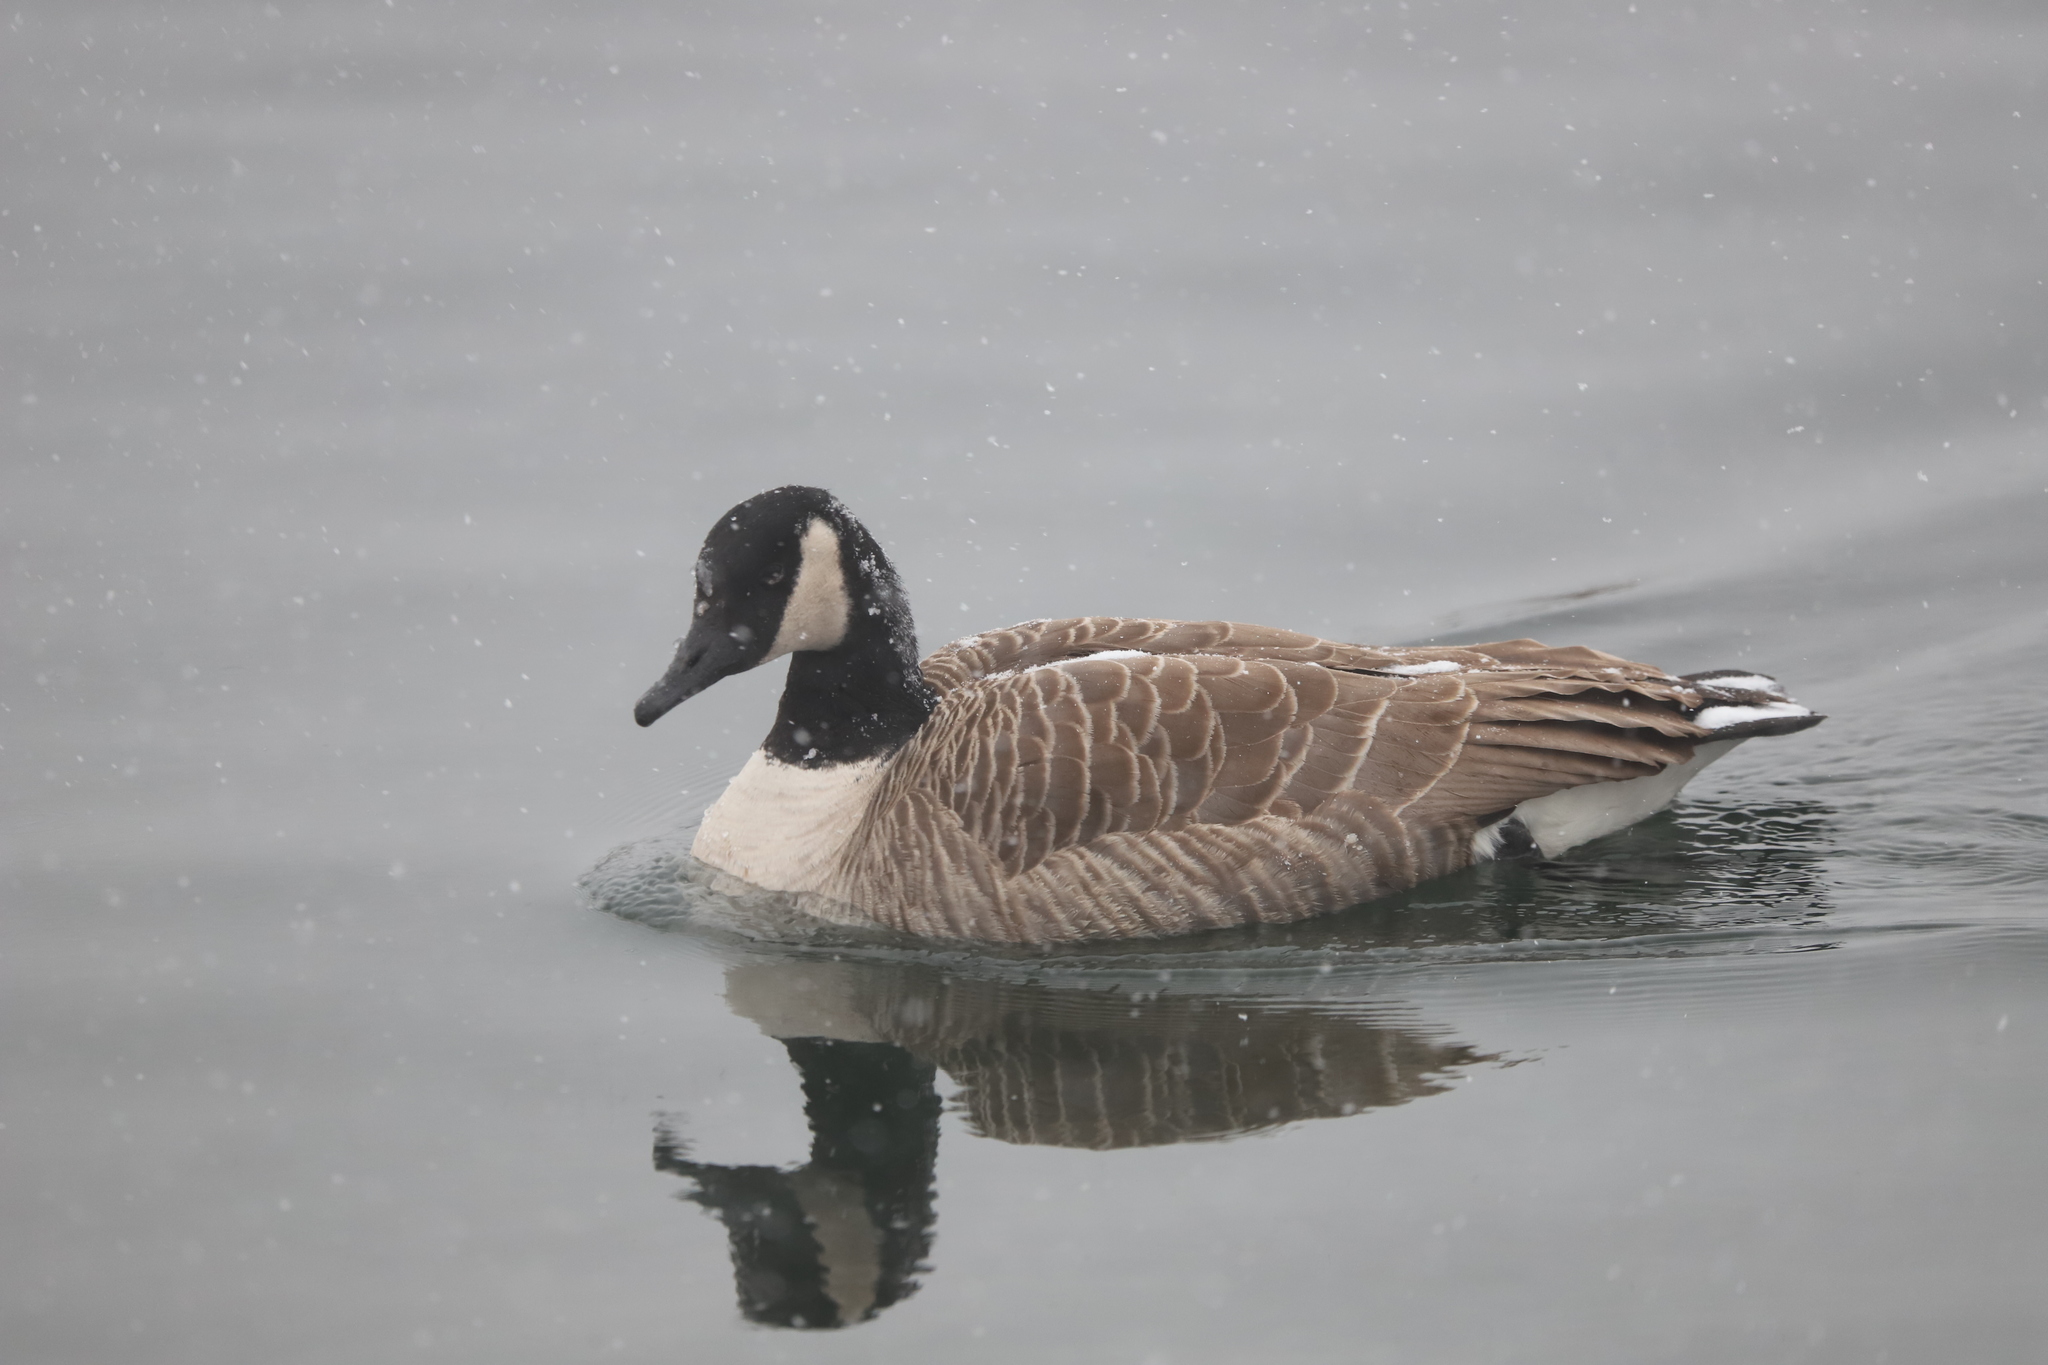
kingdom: Animalia
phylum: Chordata
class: Aves
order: Anseriformes
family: Anatidae
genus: Branta
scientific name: Branta canadensis
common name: Canada goose
